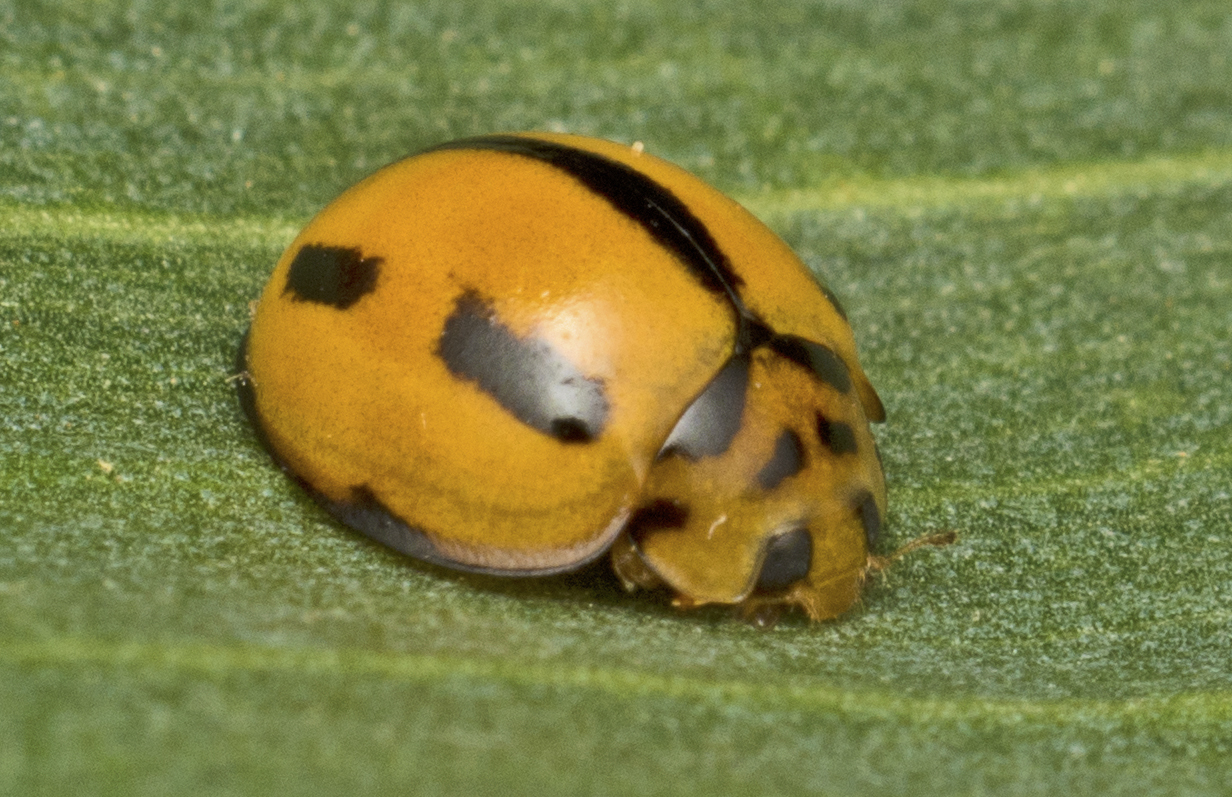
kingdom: Animalia
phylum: Arthropoda
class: Insecta
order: Coleoptera
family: Coccinellidae
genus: Coelophora
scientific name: Coelophora inaequalis
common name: Common australian lady beetle
